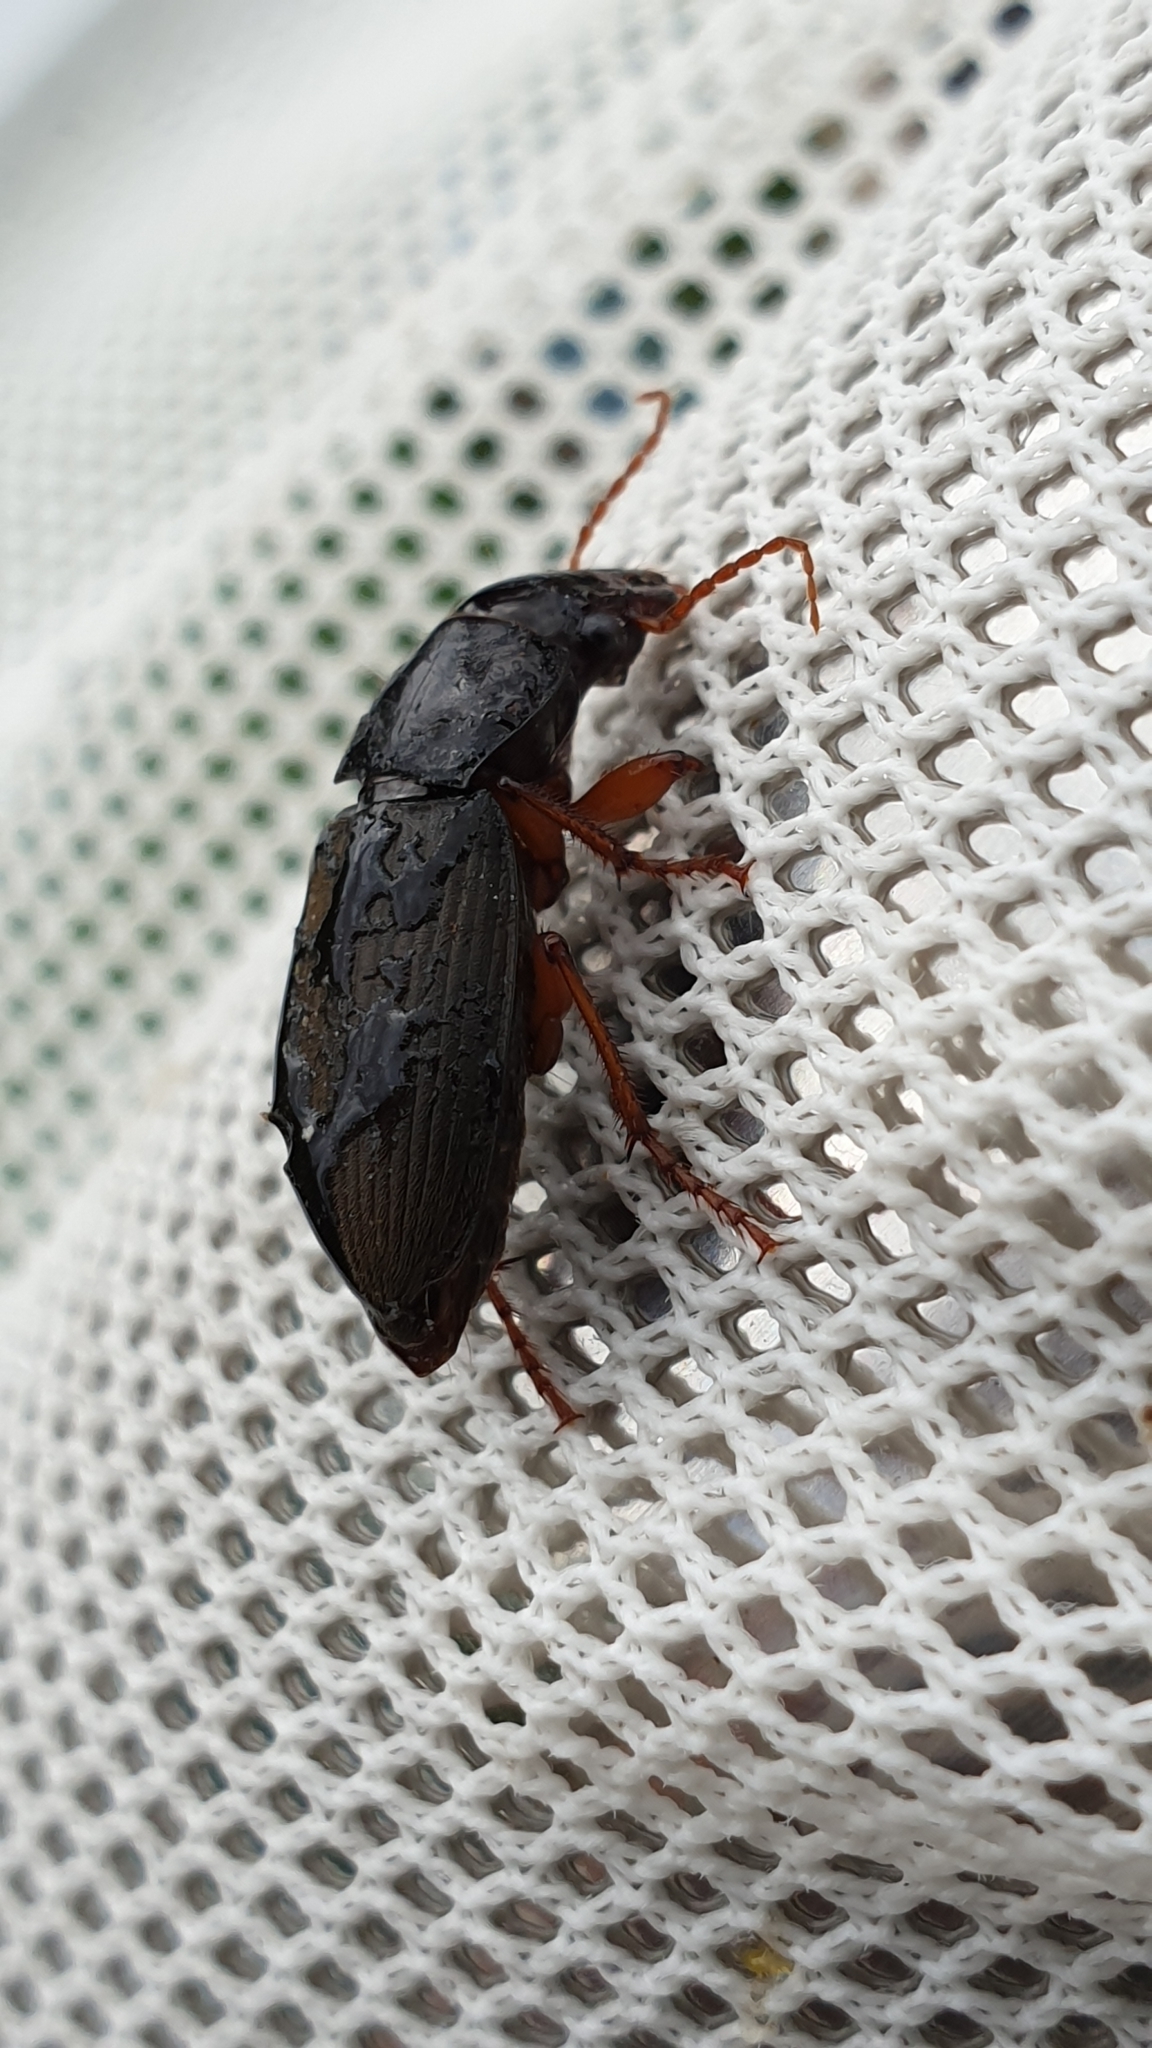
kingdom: Animalia
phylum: Arthropoda
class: Insecta
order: Coleoptera
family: Carabidae
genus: Harpalus
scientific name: Harpalus rufipes
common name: Strawberry harp ground beetle
